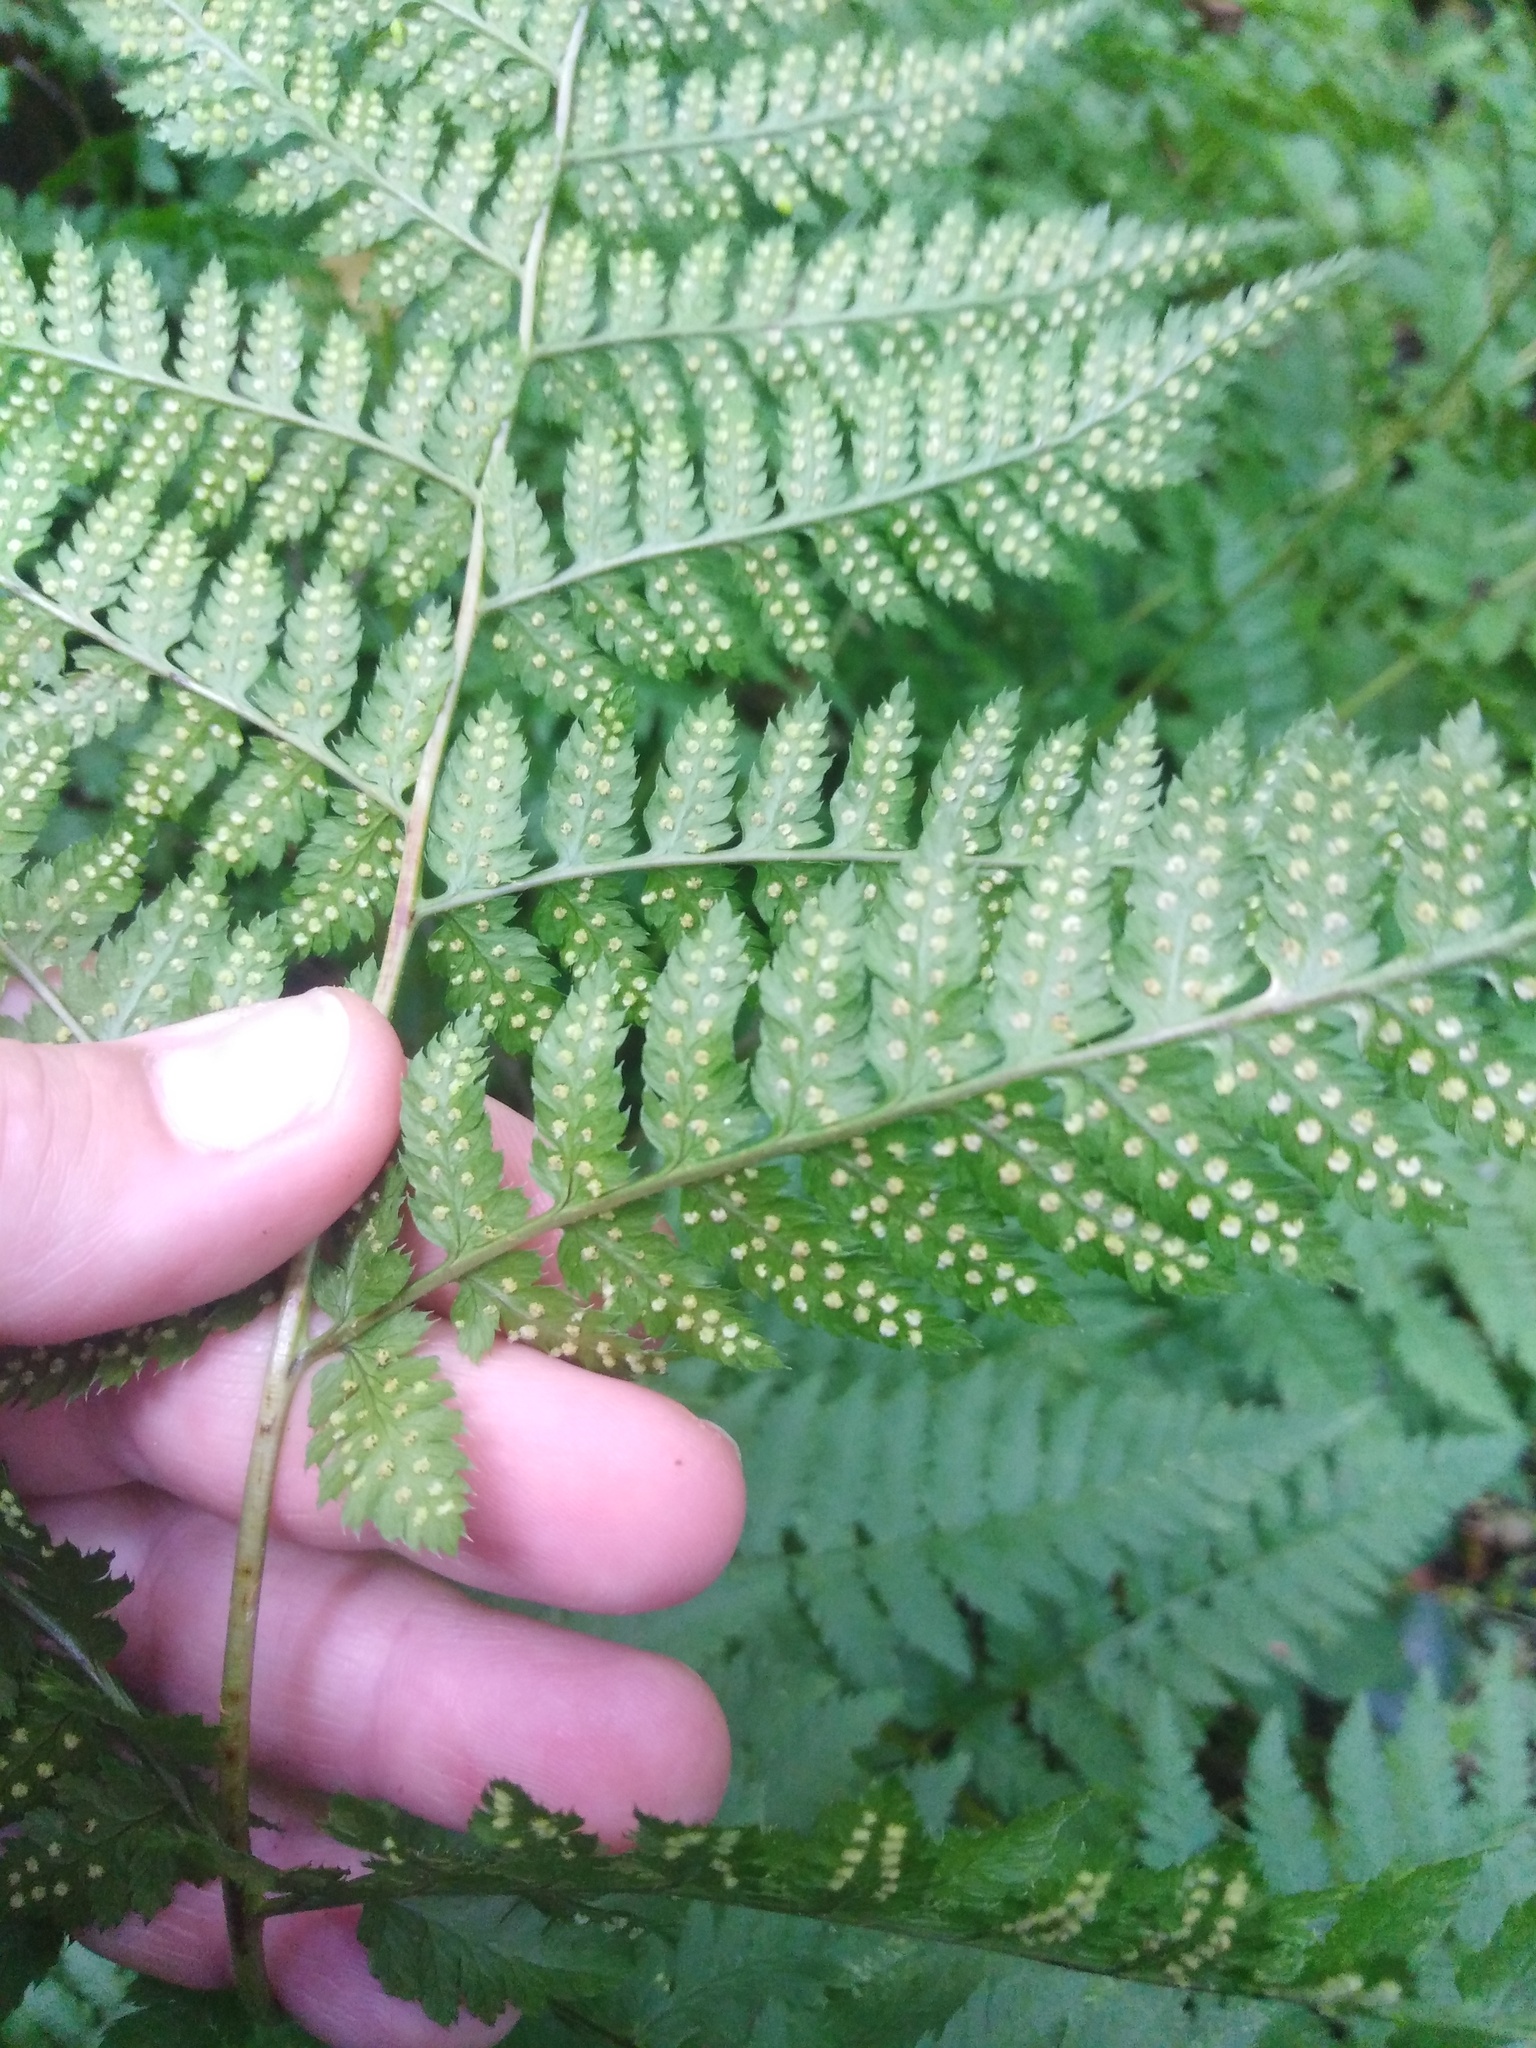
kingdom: Plantae
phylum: Tracheophyta
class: Polypodiopsida
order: Polypodiales
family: Dryopteridaceae
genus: Dryopteris
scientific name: Dryopteris carthusiana
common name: Narrow buckler-fern
